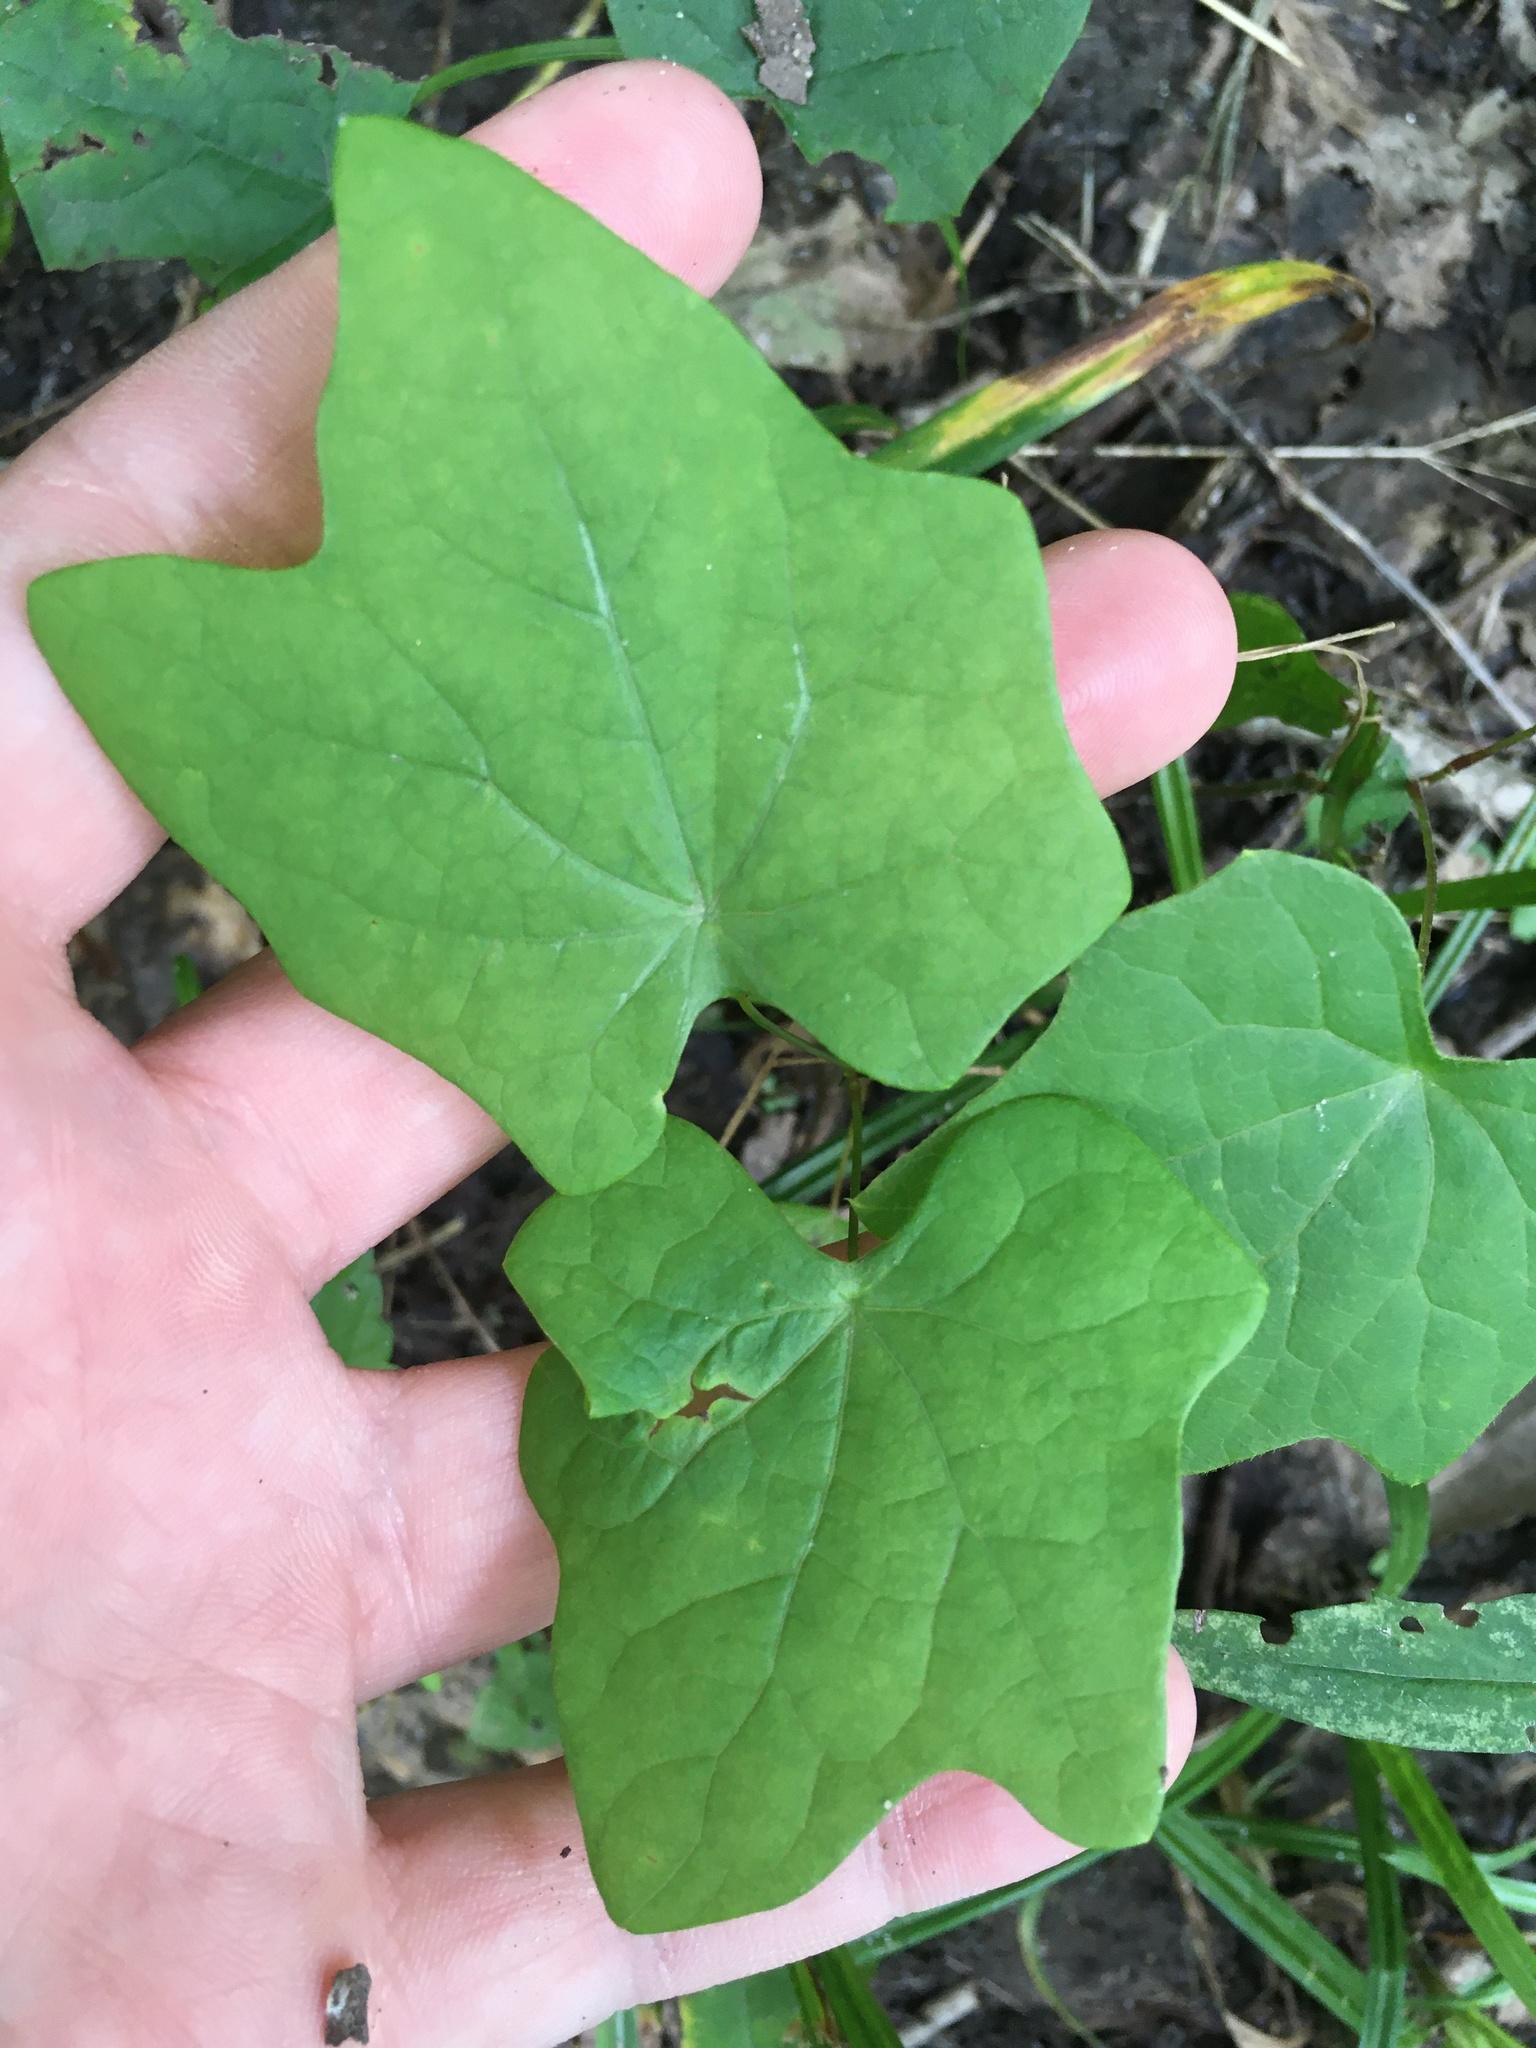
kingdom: Plantae
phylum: Tracheophyta
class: Magnoliopsida
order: Ranunculales
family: Menispermaceae
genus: Menispermum
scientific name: Menispermum canadense
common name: Moonseed
